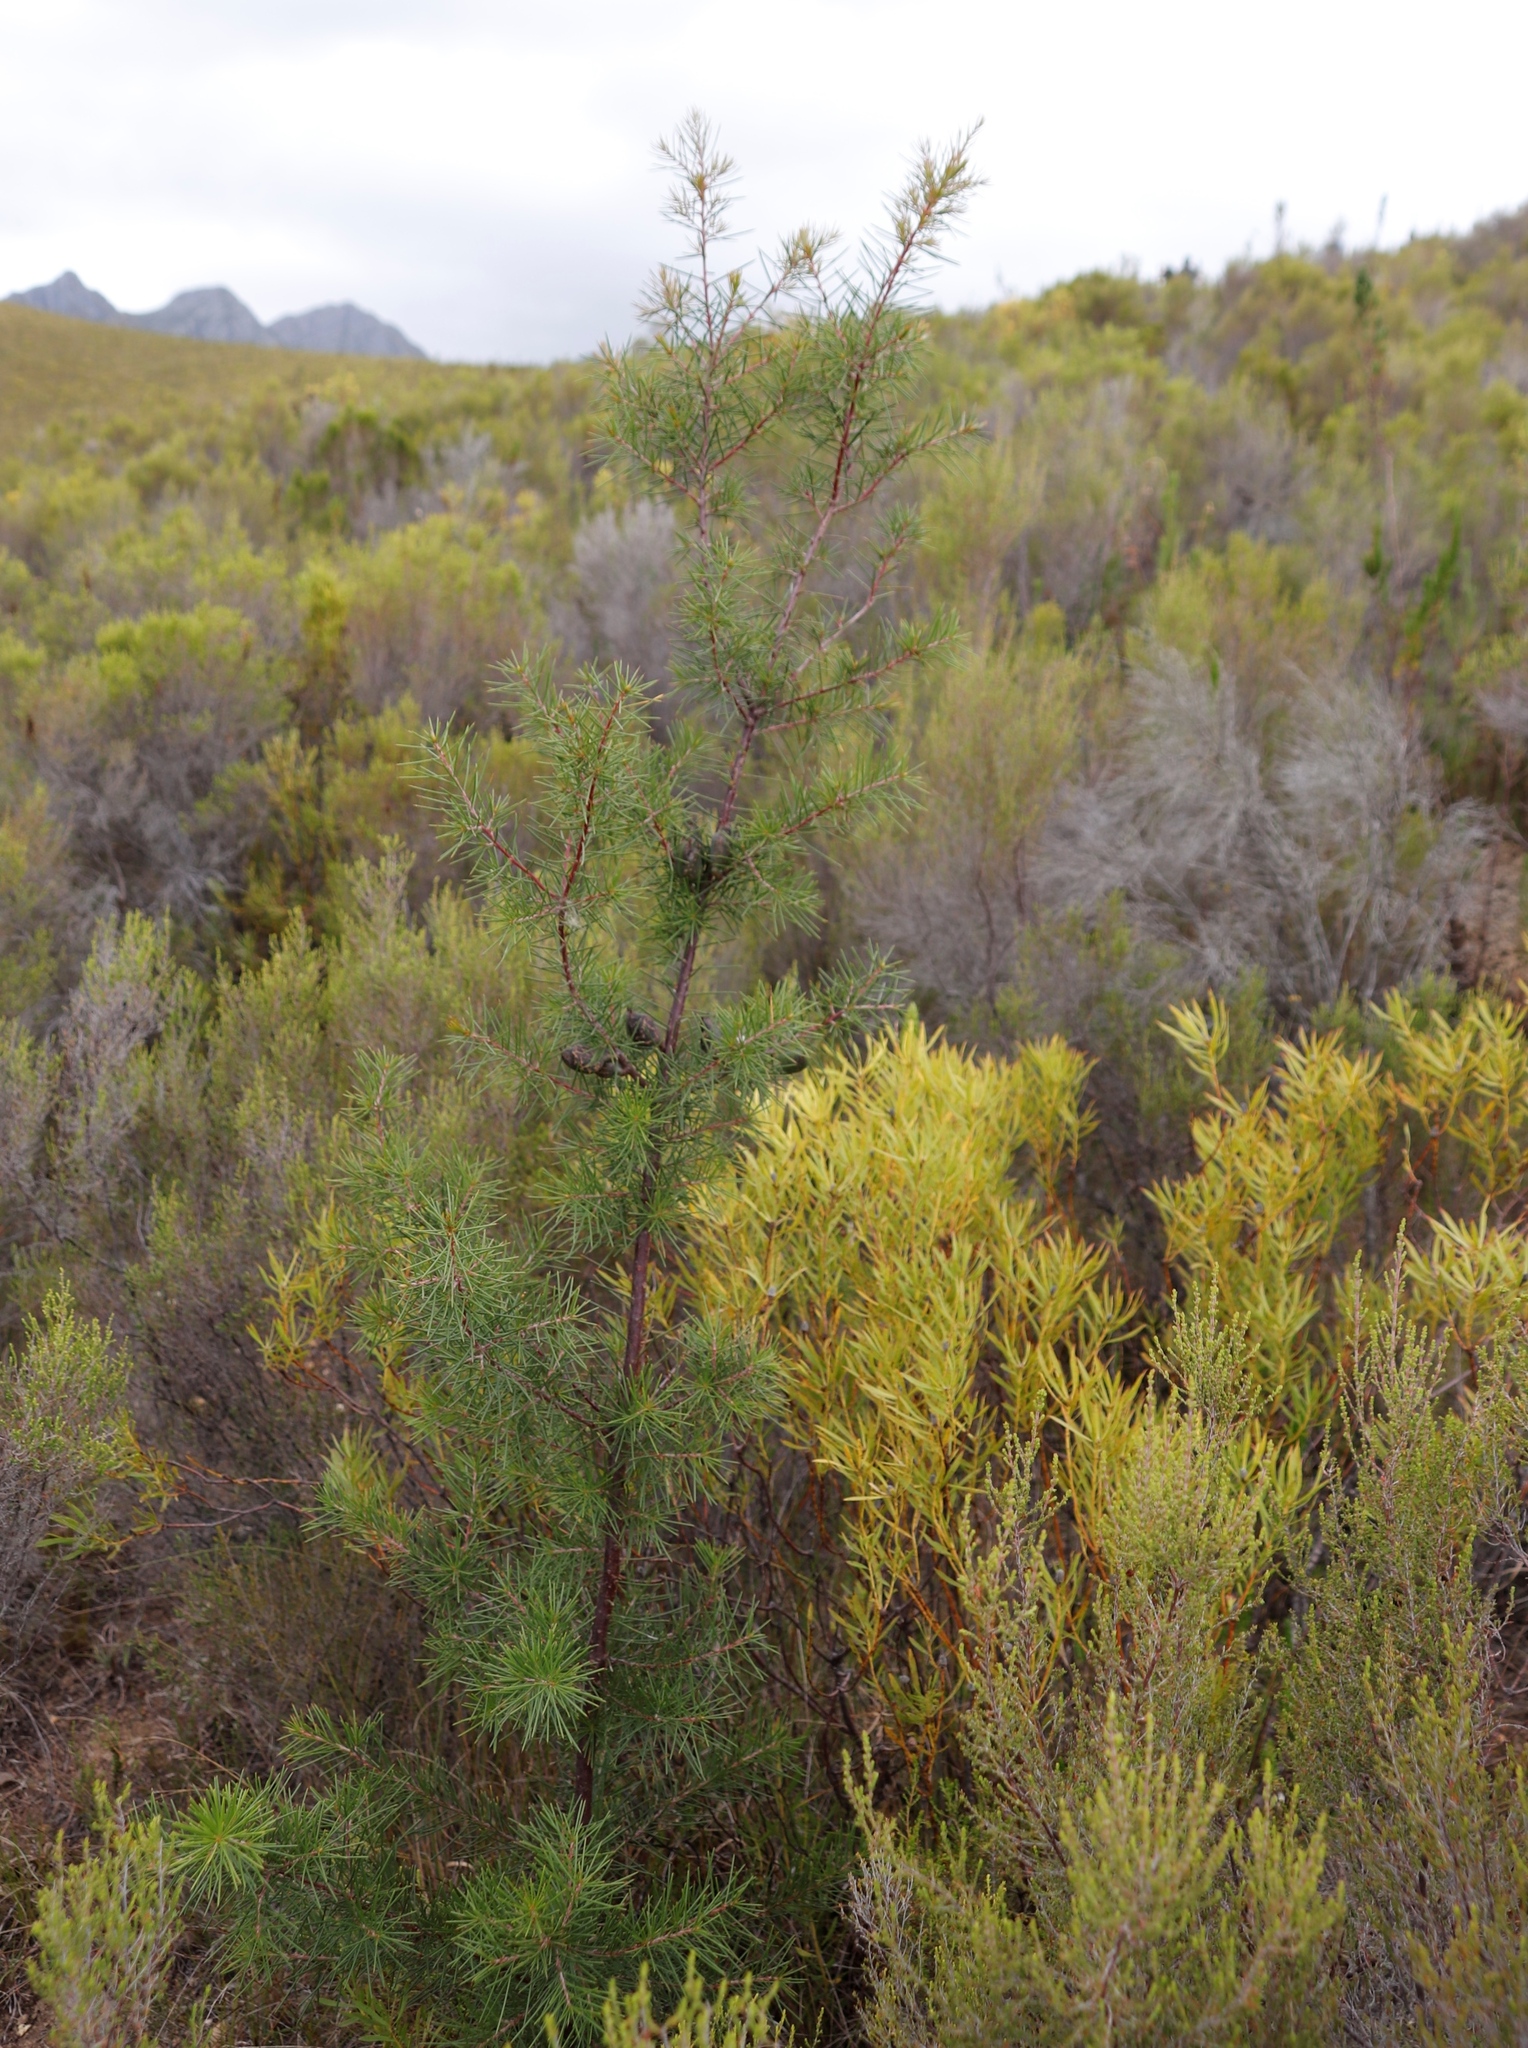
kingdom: Plantae
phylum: Tracheophyta
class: Magnoliopsida
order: Proteales
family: Proteaceae
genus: Hakea
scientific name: Hakea sericea
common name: Needle bush
